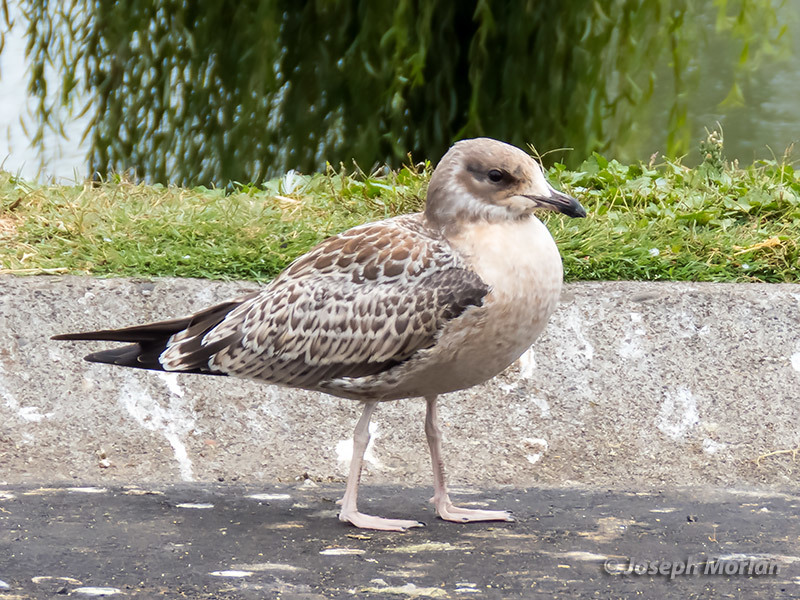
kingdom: Animalia
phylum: Chordata
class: Aves
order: Charadriiformes
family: Laridae
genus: Larus
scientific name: Larus californicus
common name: California gull
